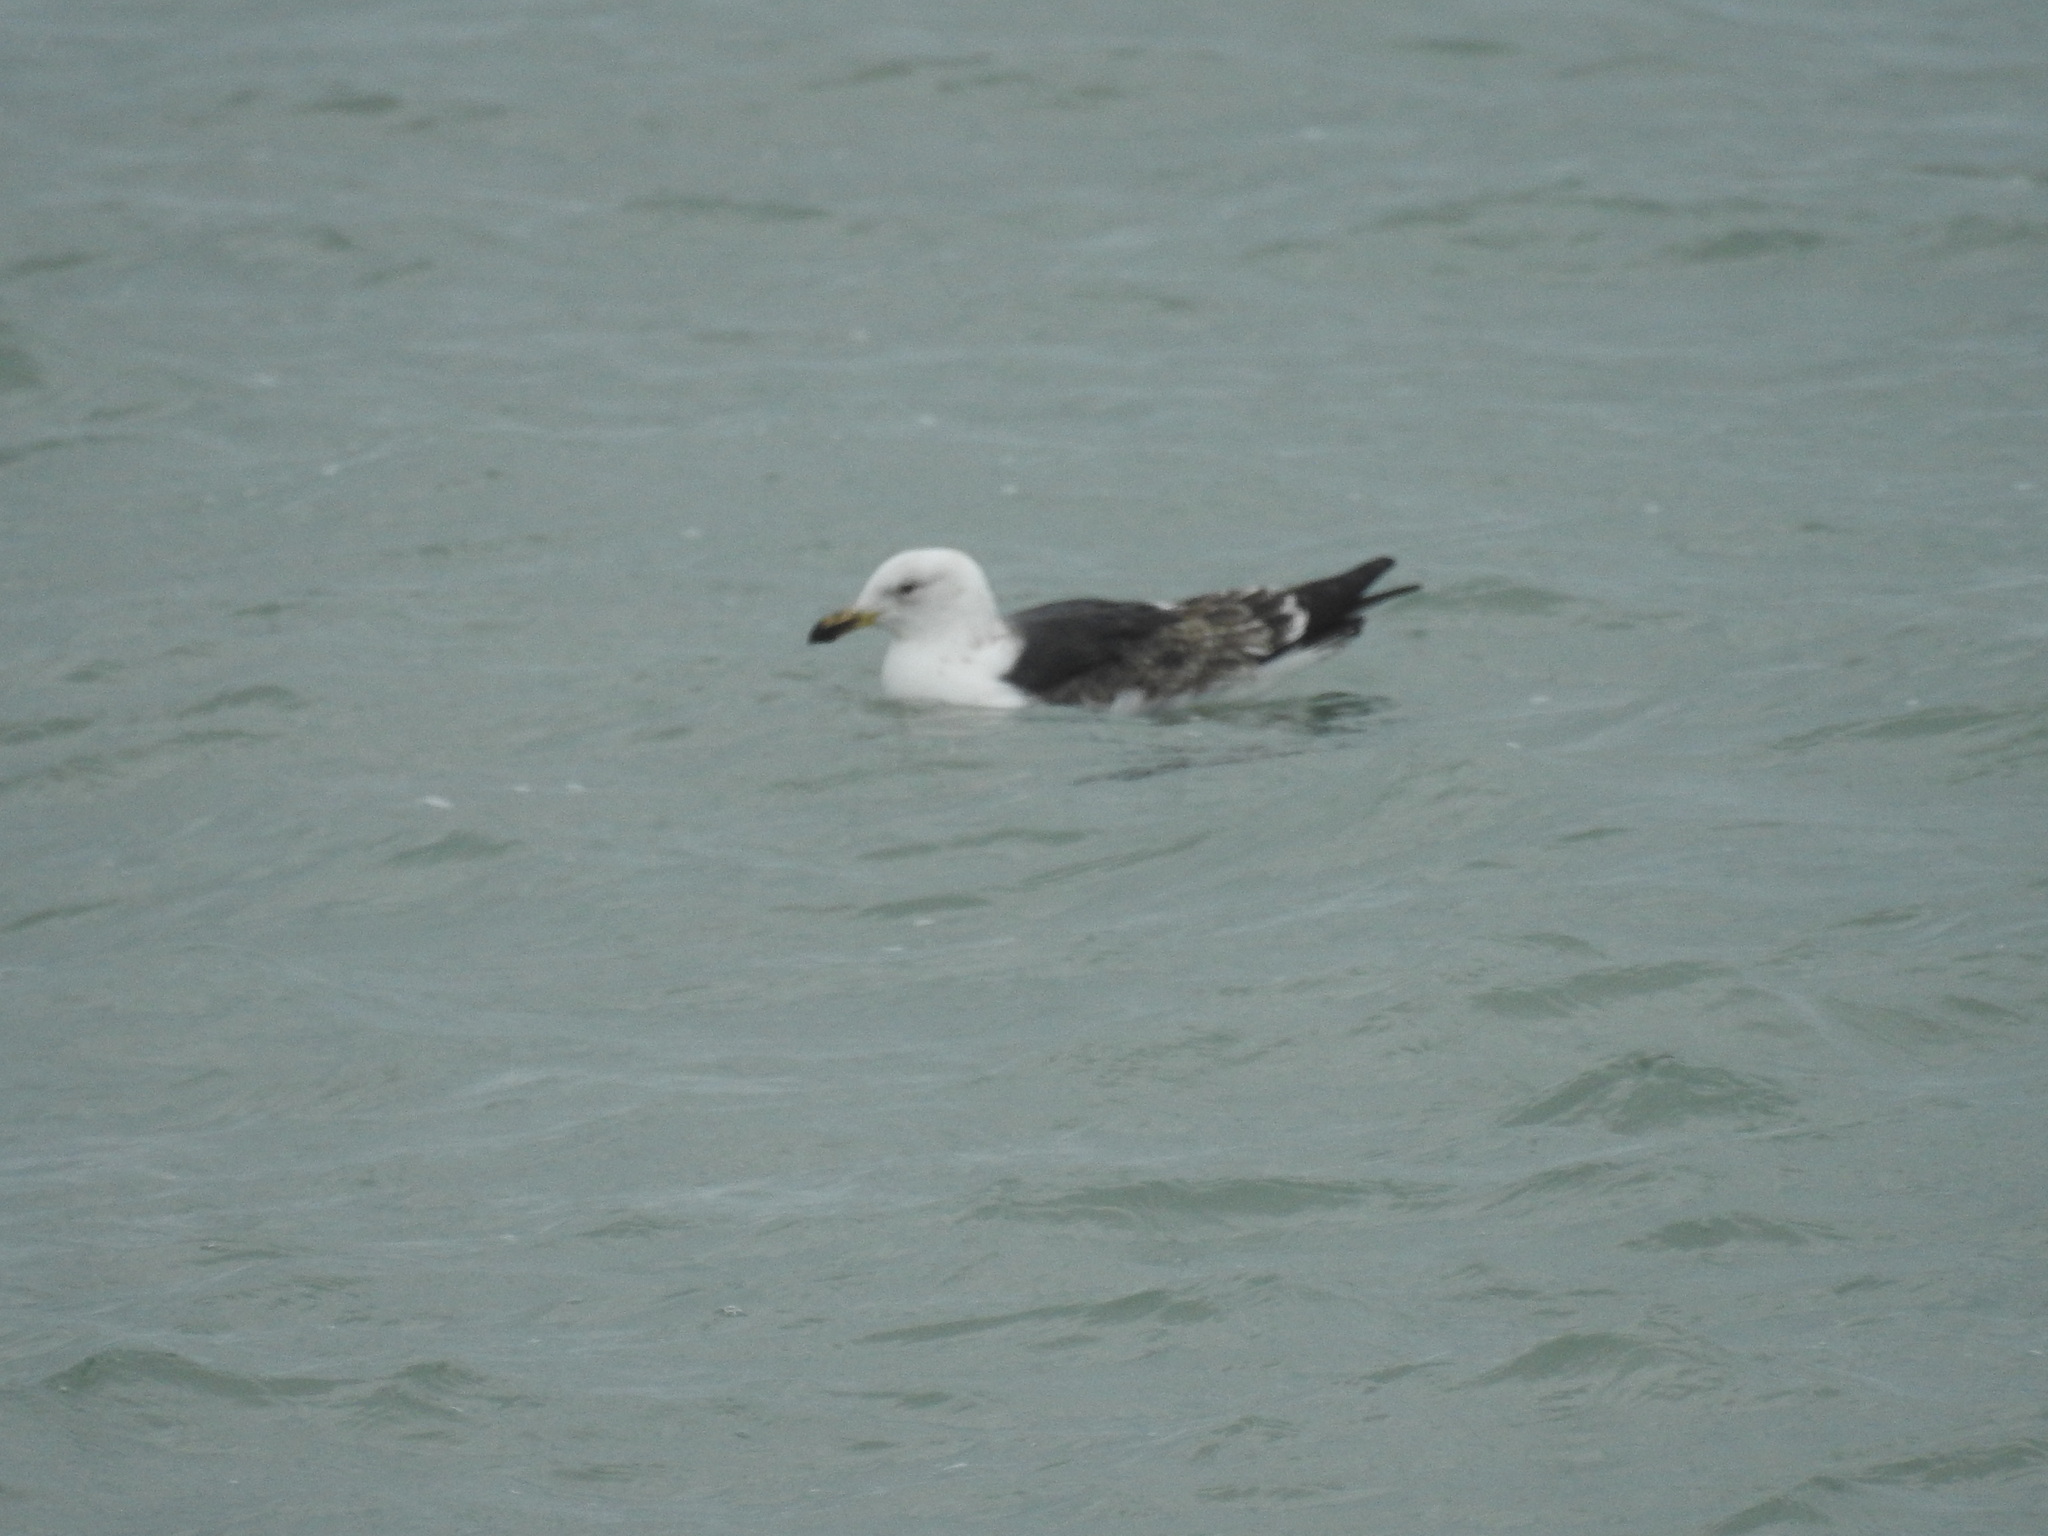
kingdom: Animalia
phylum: Chordata
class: Aves
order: Charadriiformes
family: Laridae
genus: Larus
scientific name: Larus dominicanus
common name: Kelp gull
